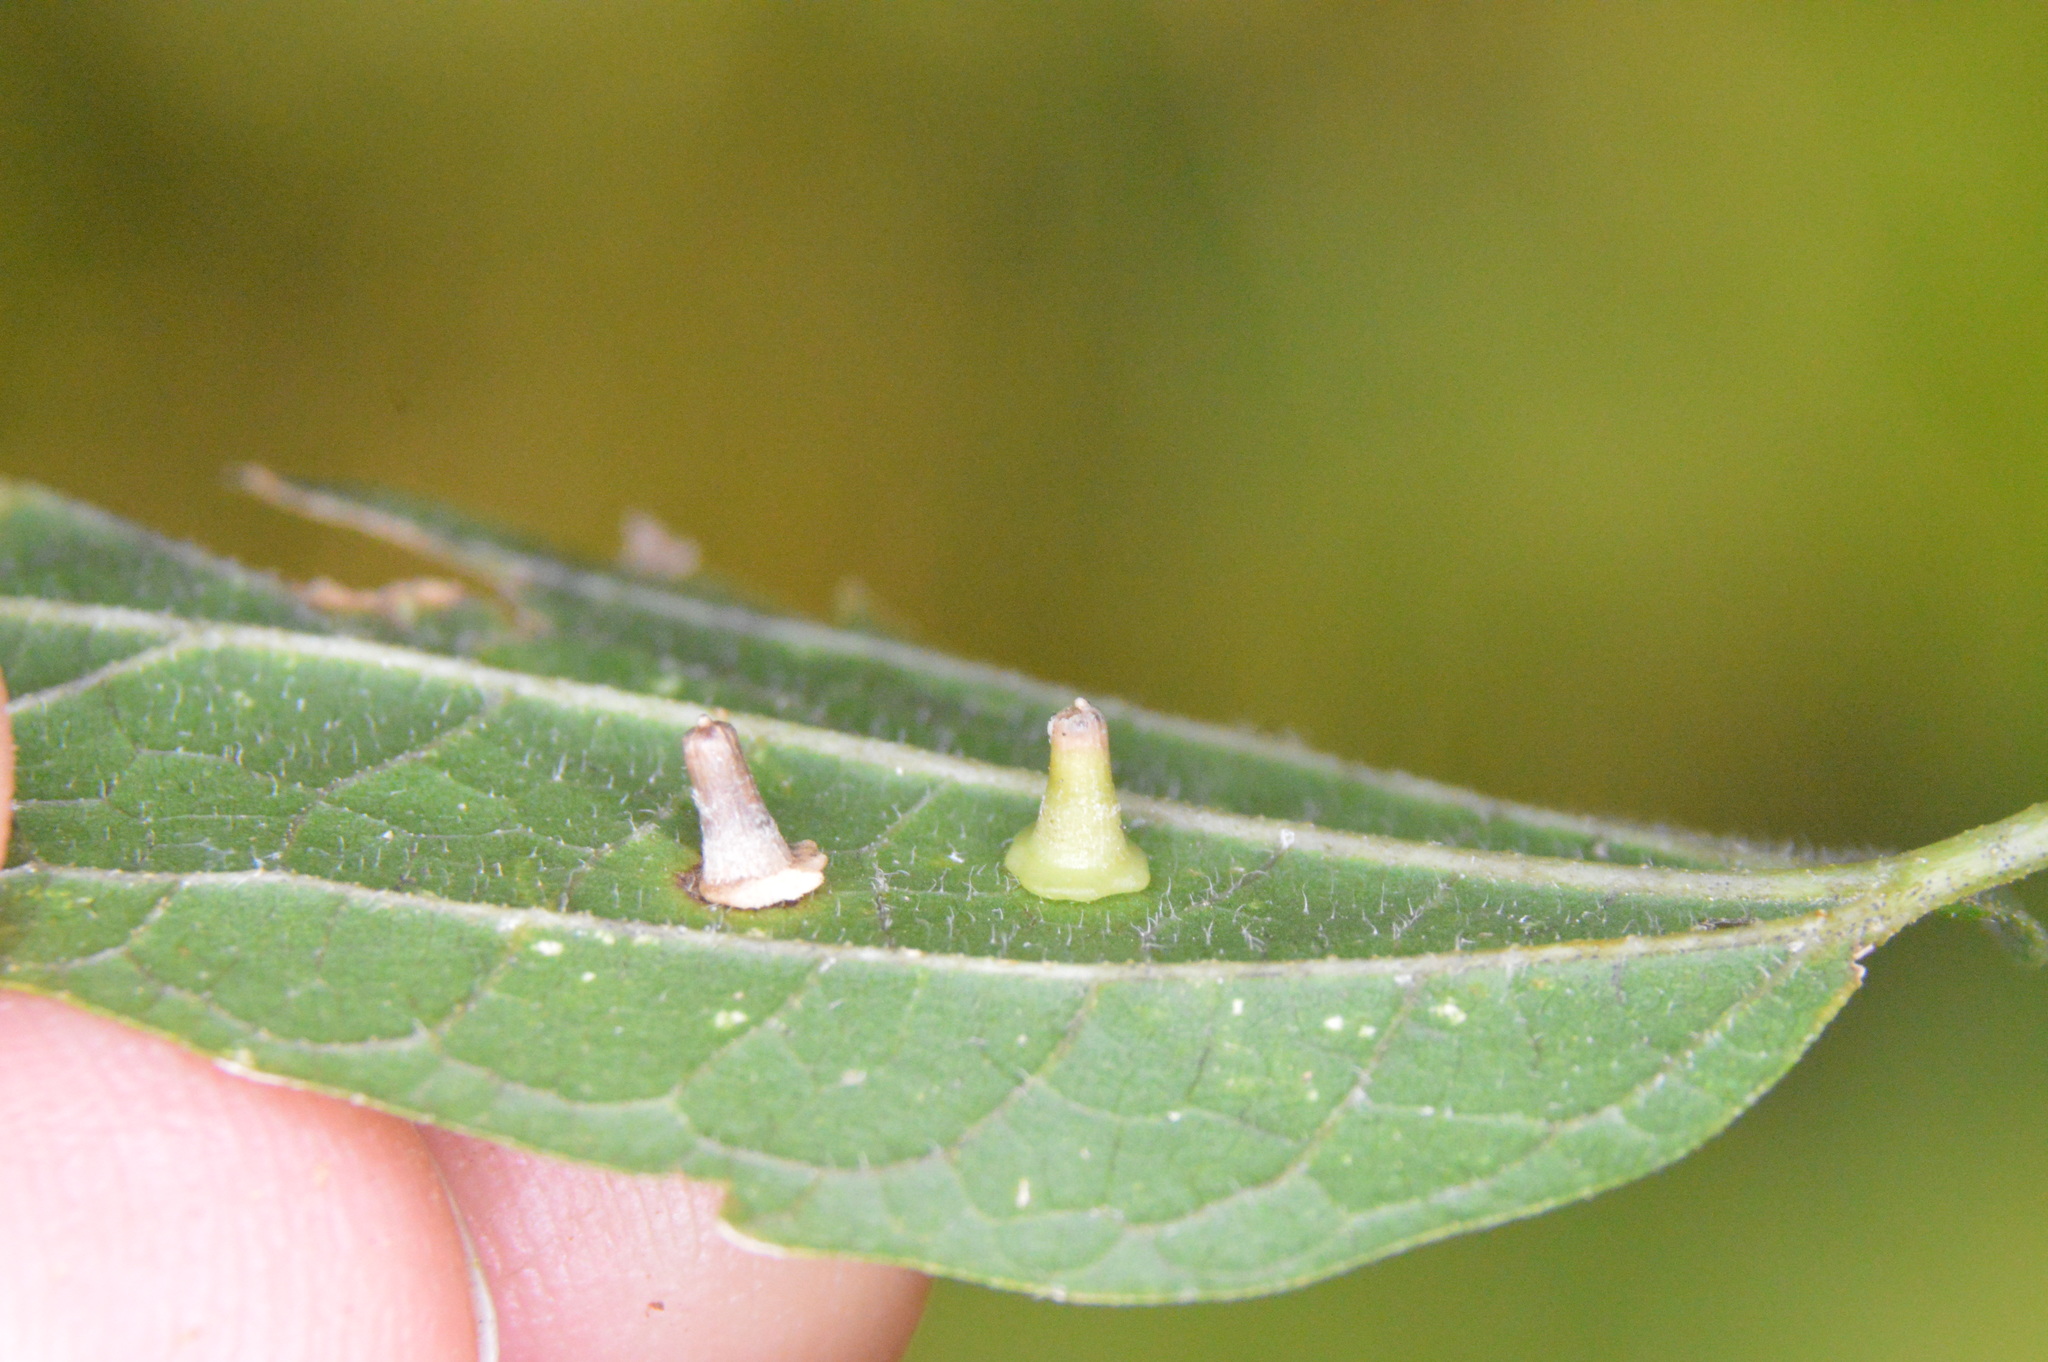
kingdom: Animalia
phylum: Arthropoda
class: Insecta
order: Diptera
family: Cecidomyiidae
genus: Celticecis
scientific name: Celticecis aciculata
